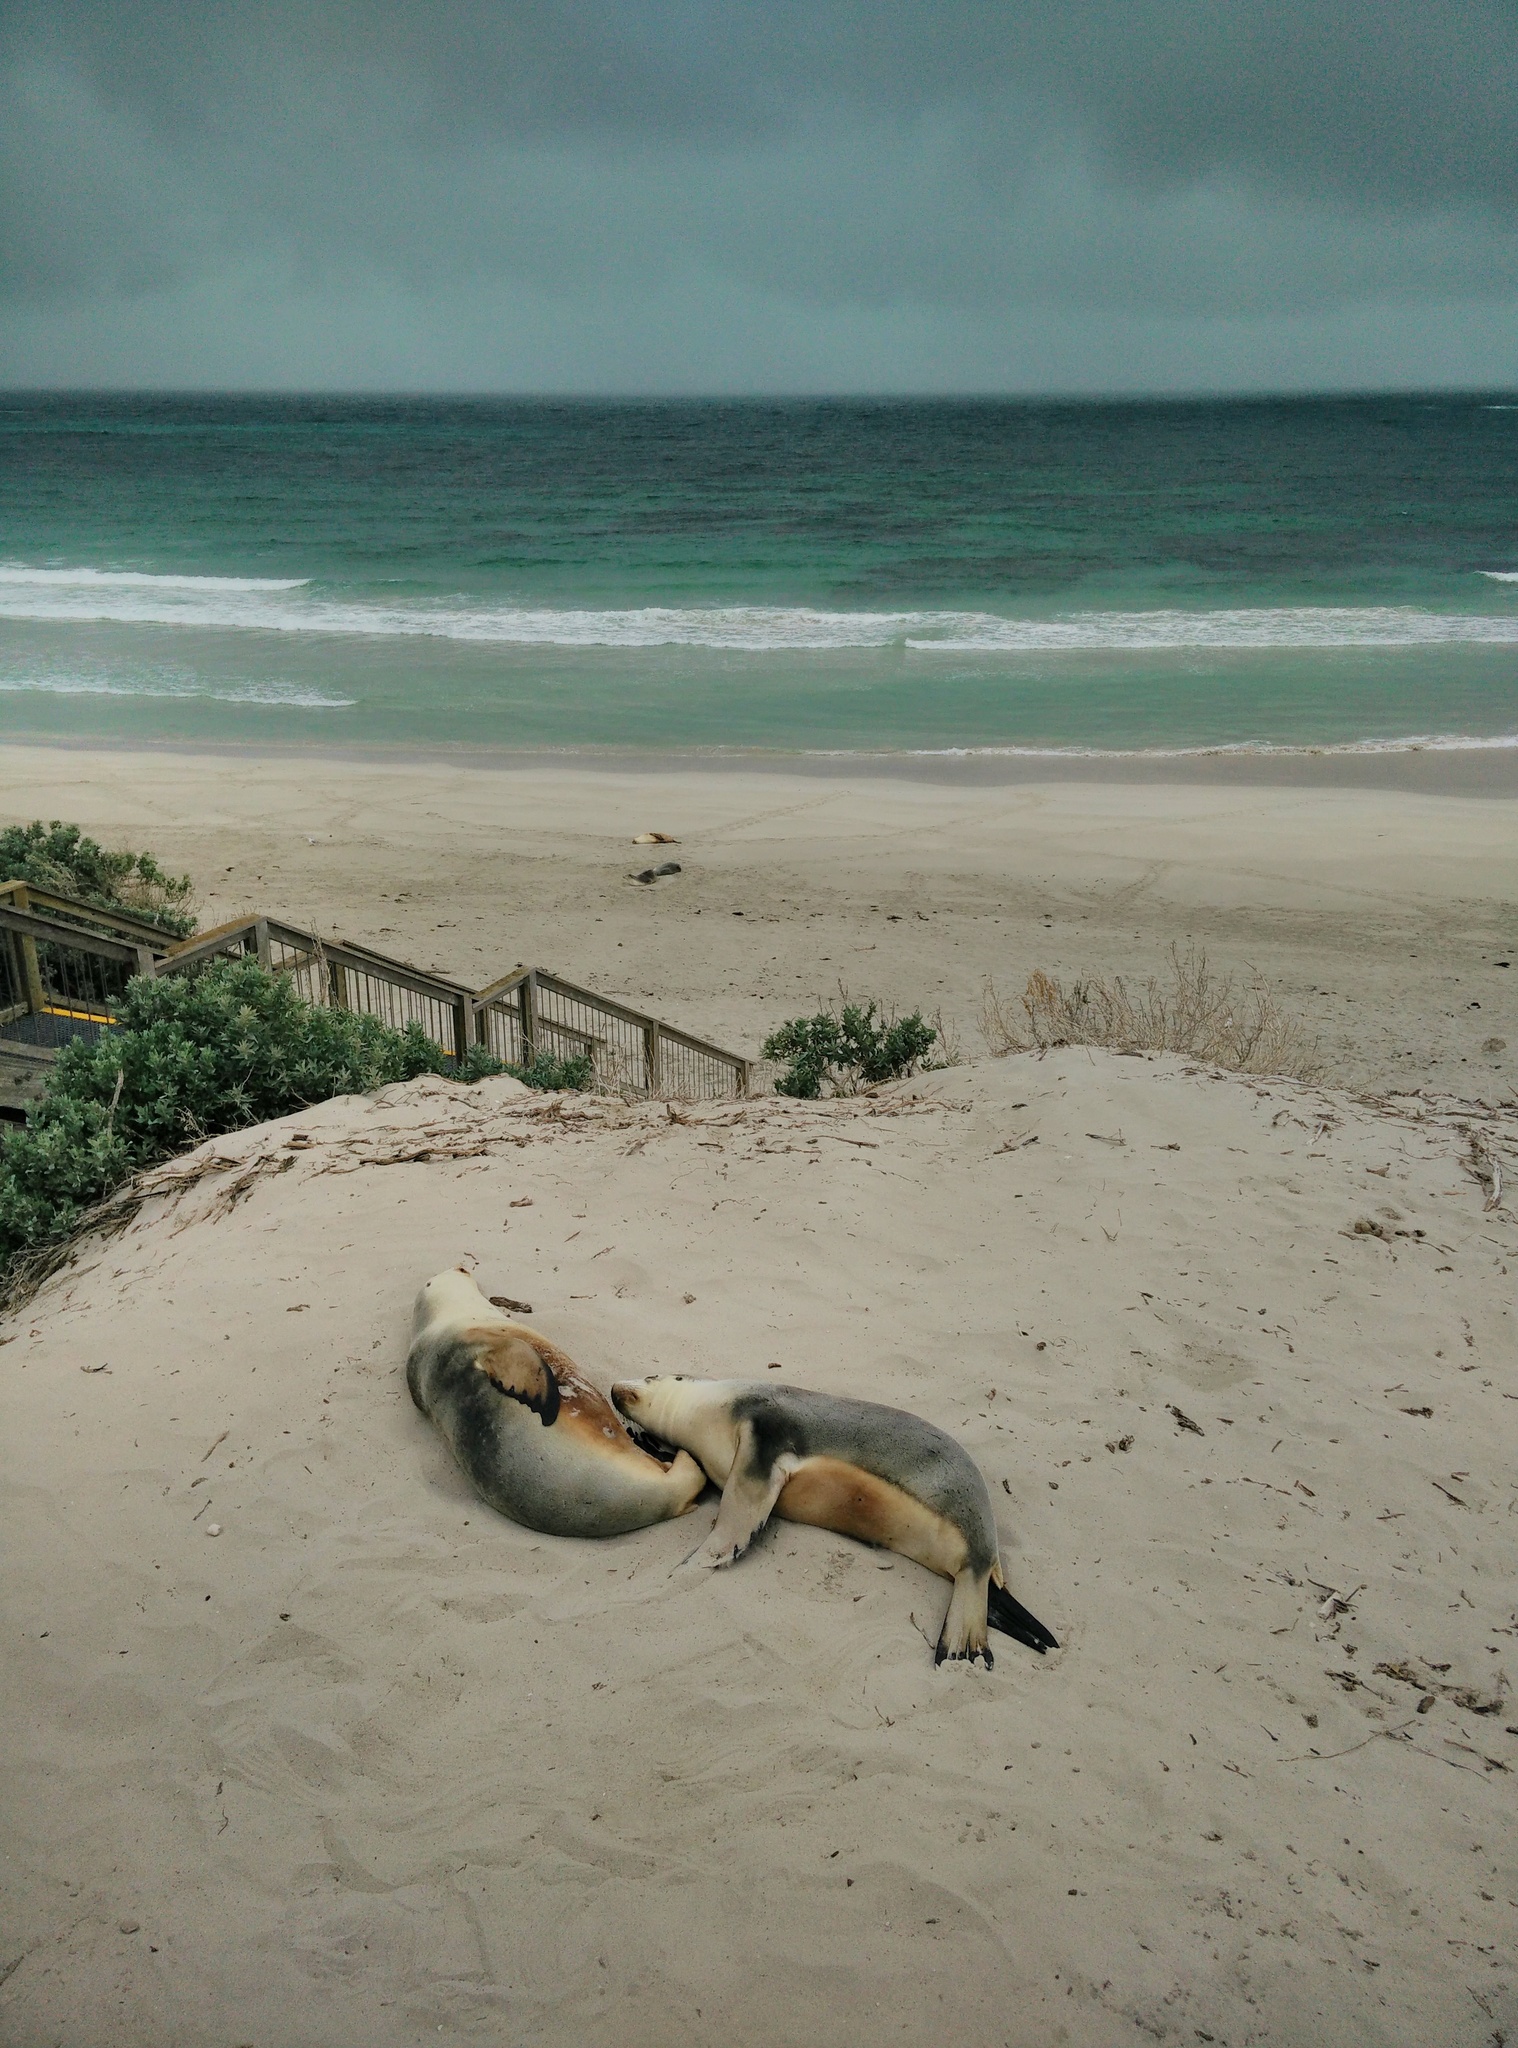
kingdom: Animalia
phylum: Chordata
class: Mammalia
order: Carnivora
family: Otariidae
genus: Neophoca
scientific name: Neophoca cinerea
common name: Australian sea lion
